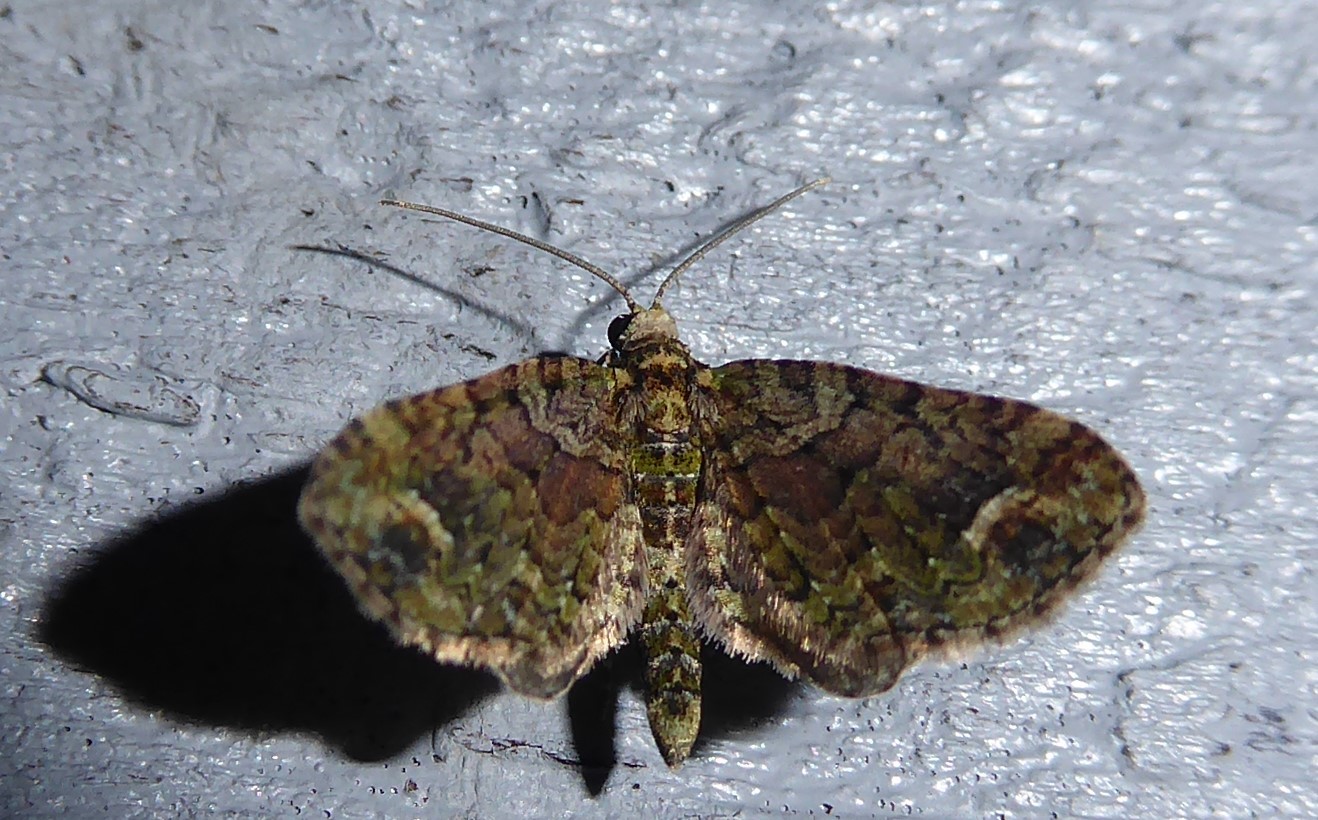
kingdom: Animalia
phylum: Arthropoda
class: Insecta
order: Lepidoptera
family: Geometridae
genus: Idaea
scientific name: Idaea mutanda
